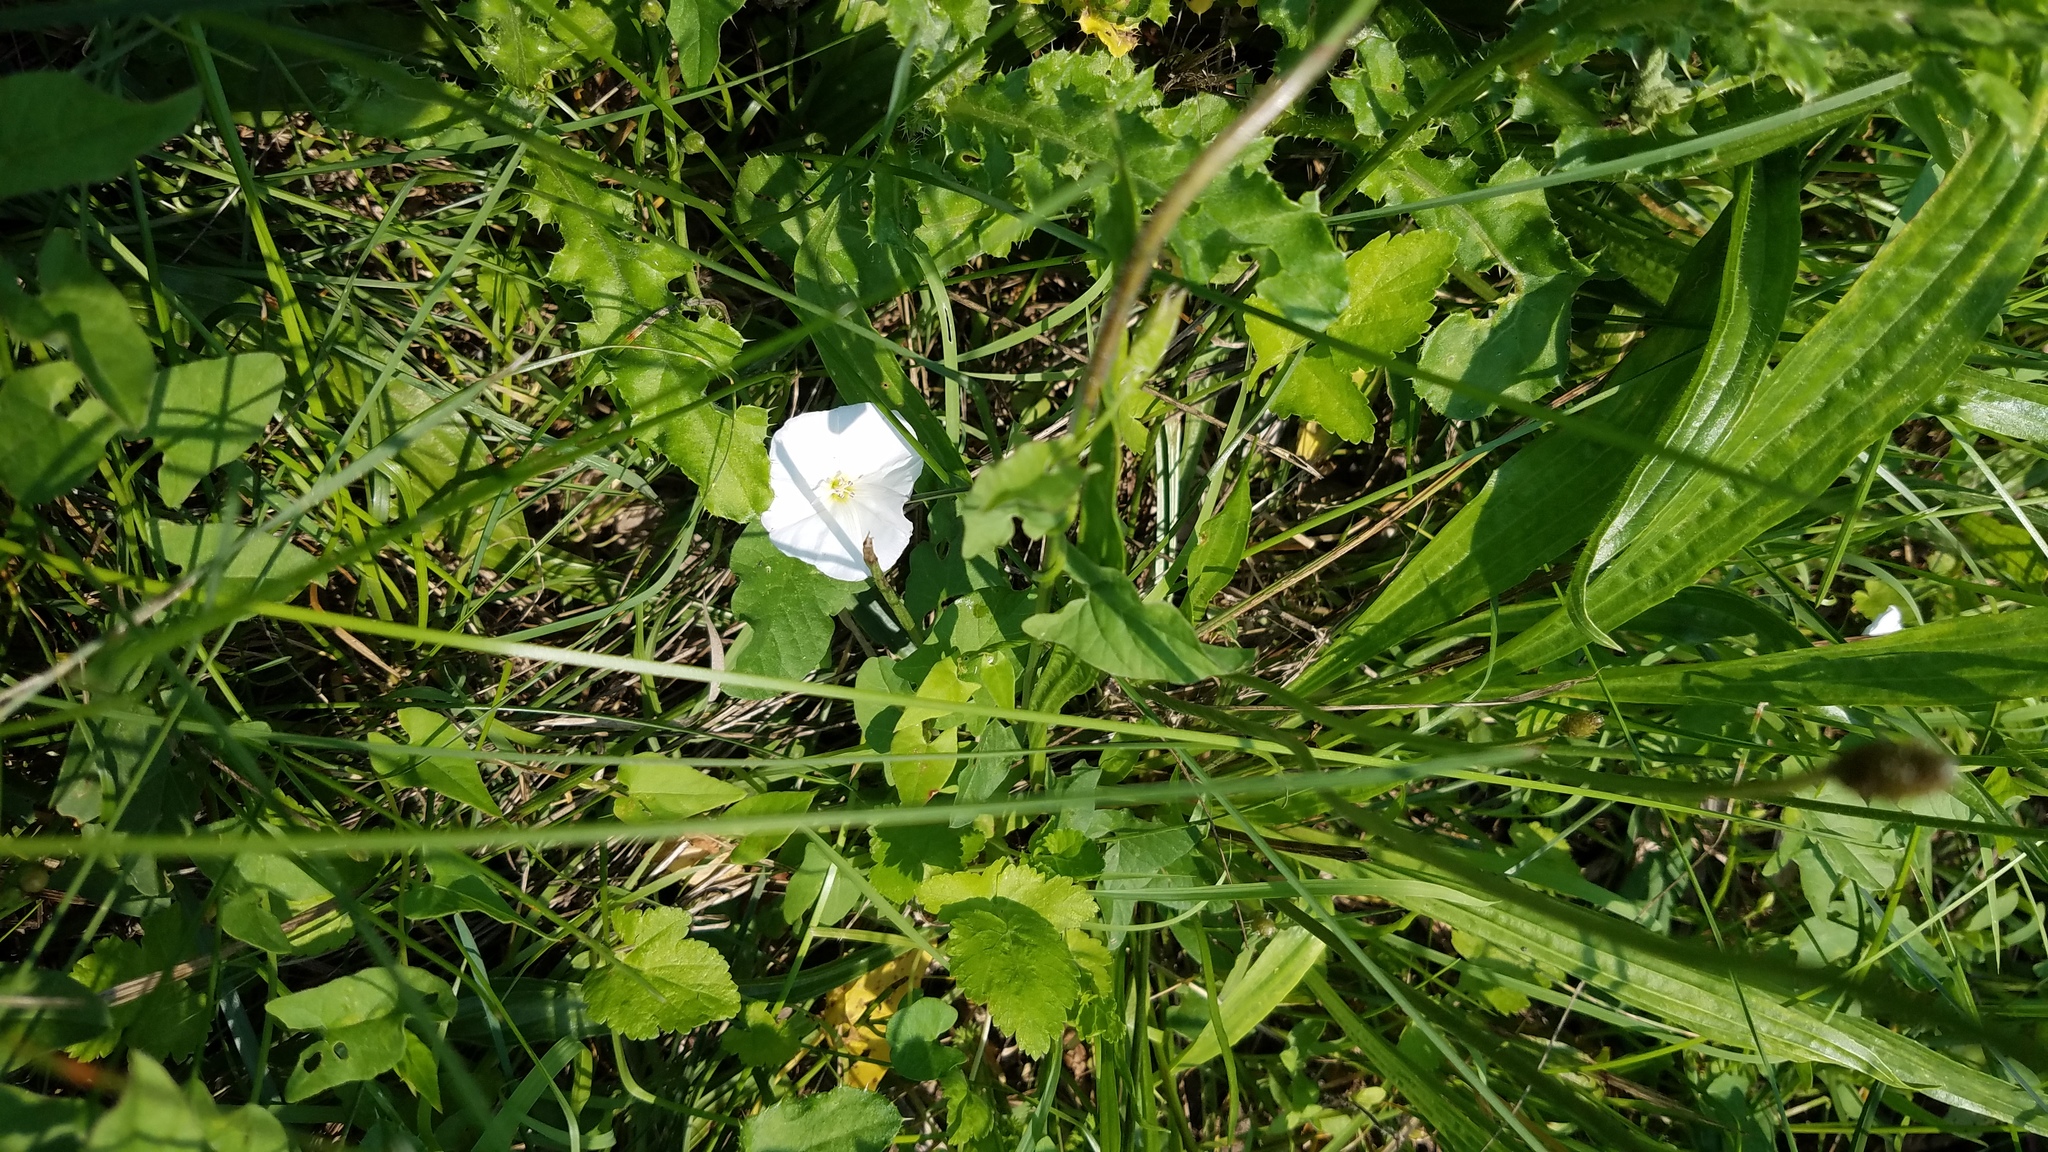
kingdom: Plantae
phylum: Tracheophyta
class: Magnoliopsida
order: Solanales
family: Convolvulaceae
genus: Convolvulus
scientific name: Convolvulus arvensis
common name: Field bindweed
